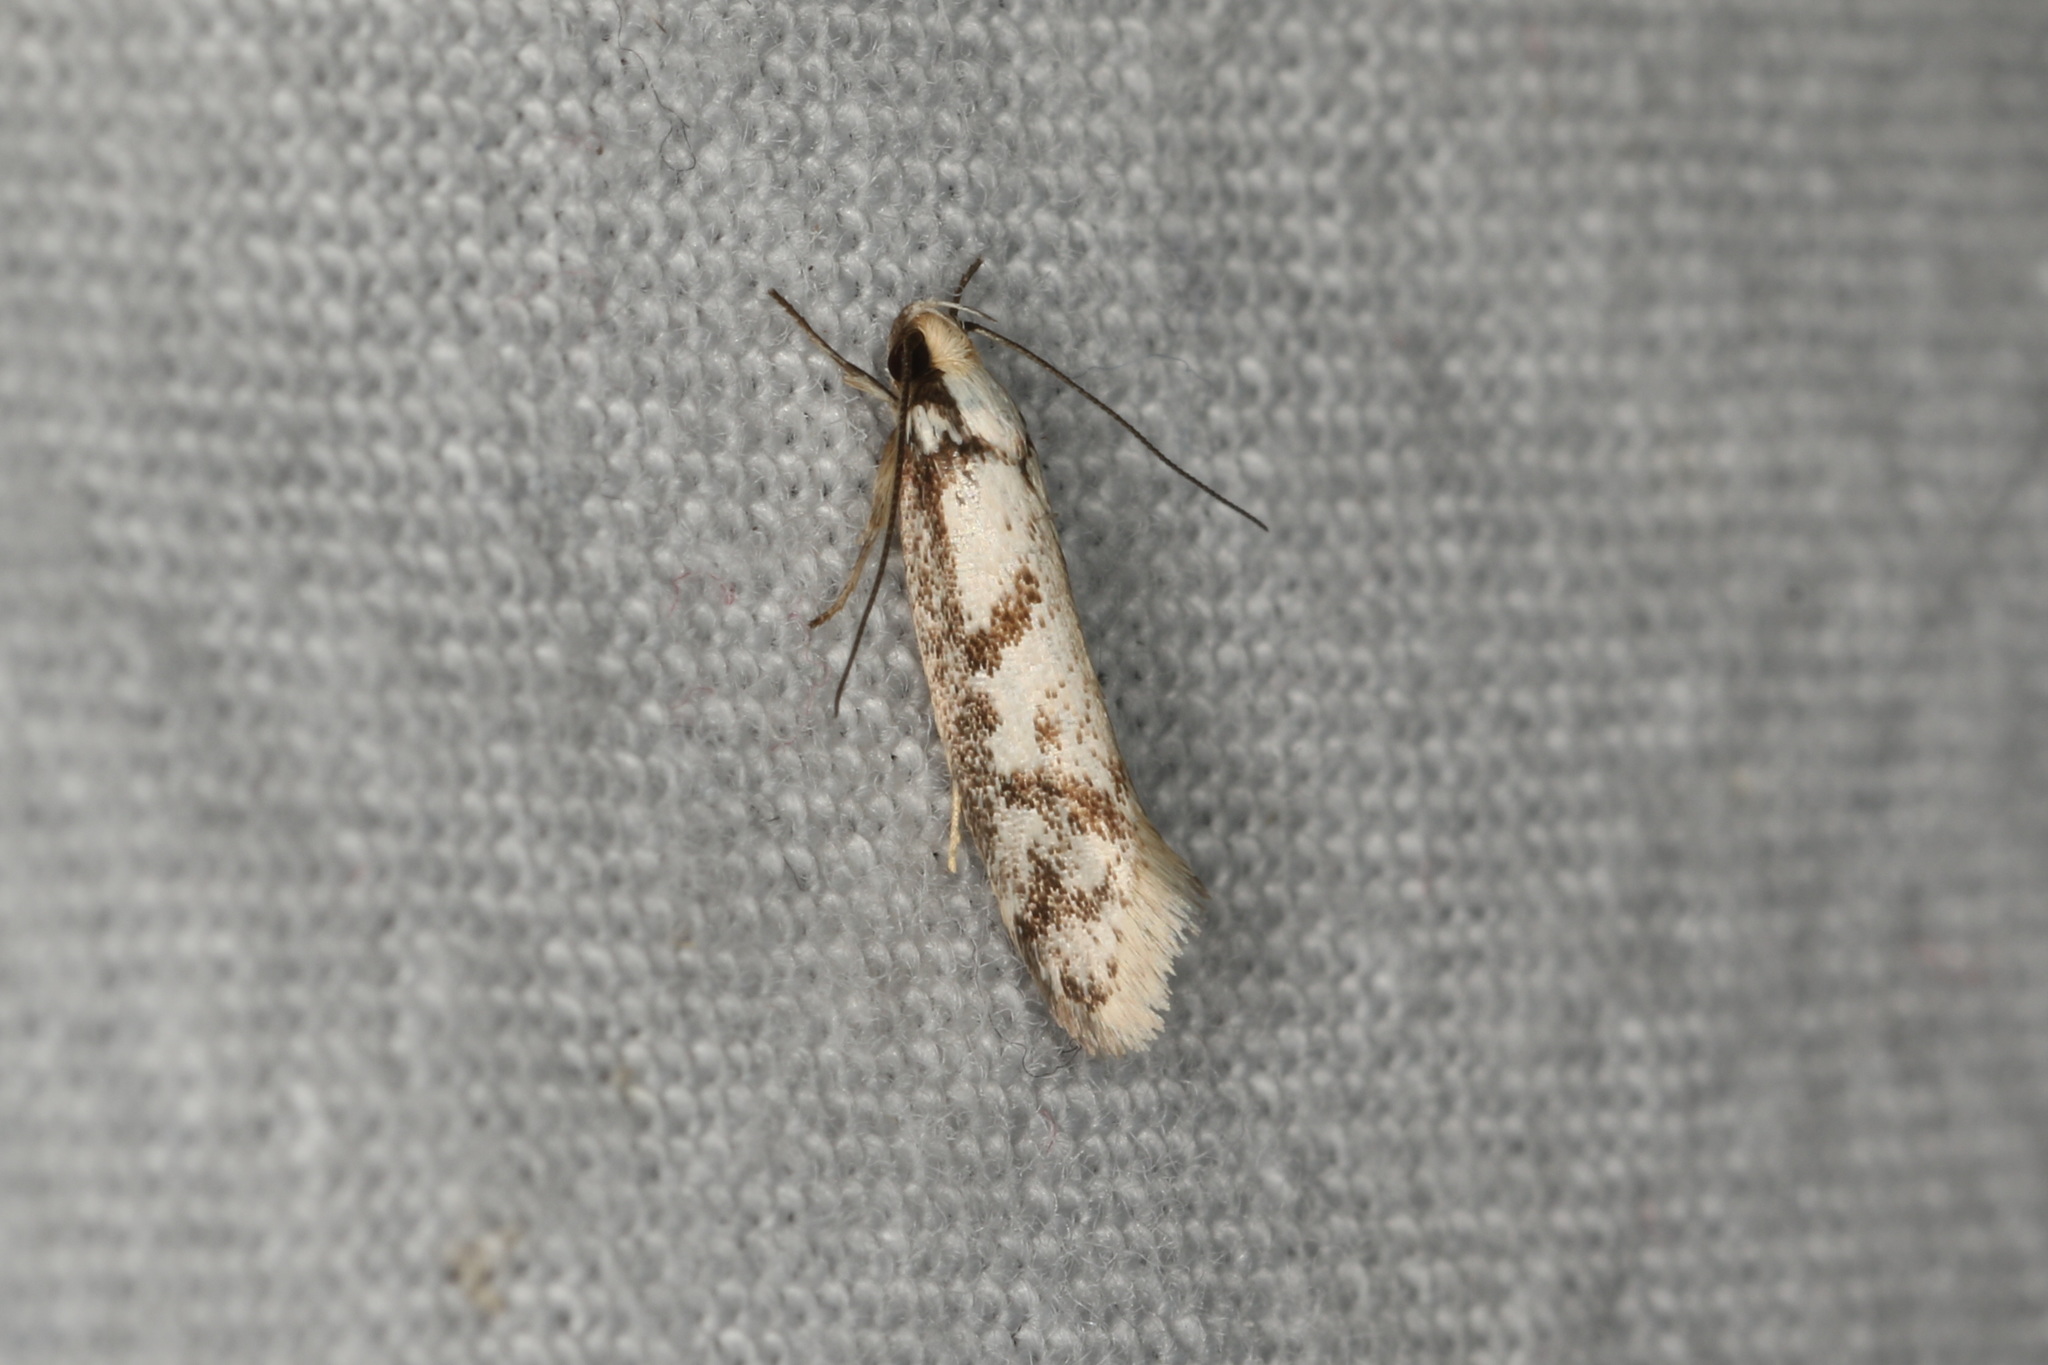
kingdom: Animalia
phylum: Arthropoda
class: Insecta
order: Lepidoptera
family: Oecophoridae
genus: Eusemocosma
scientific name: Eusemocosma pruinosa
